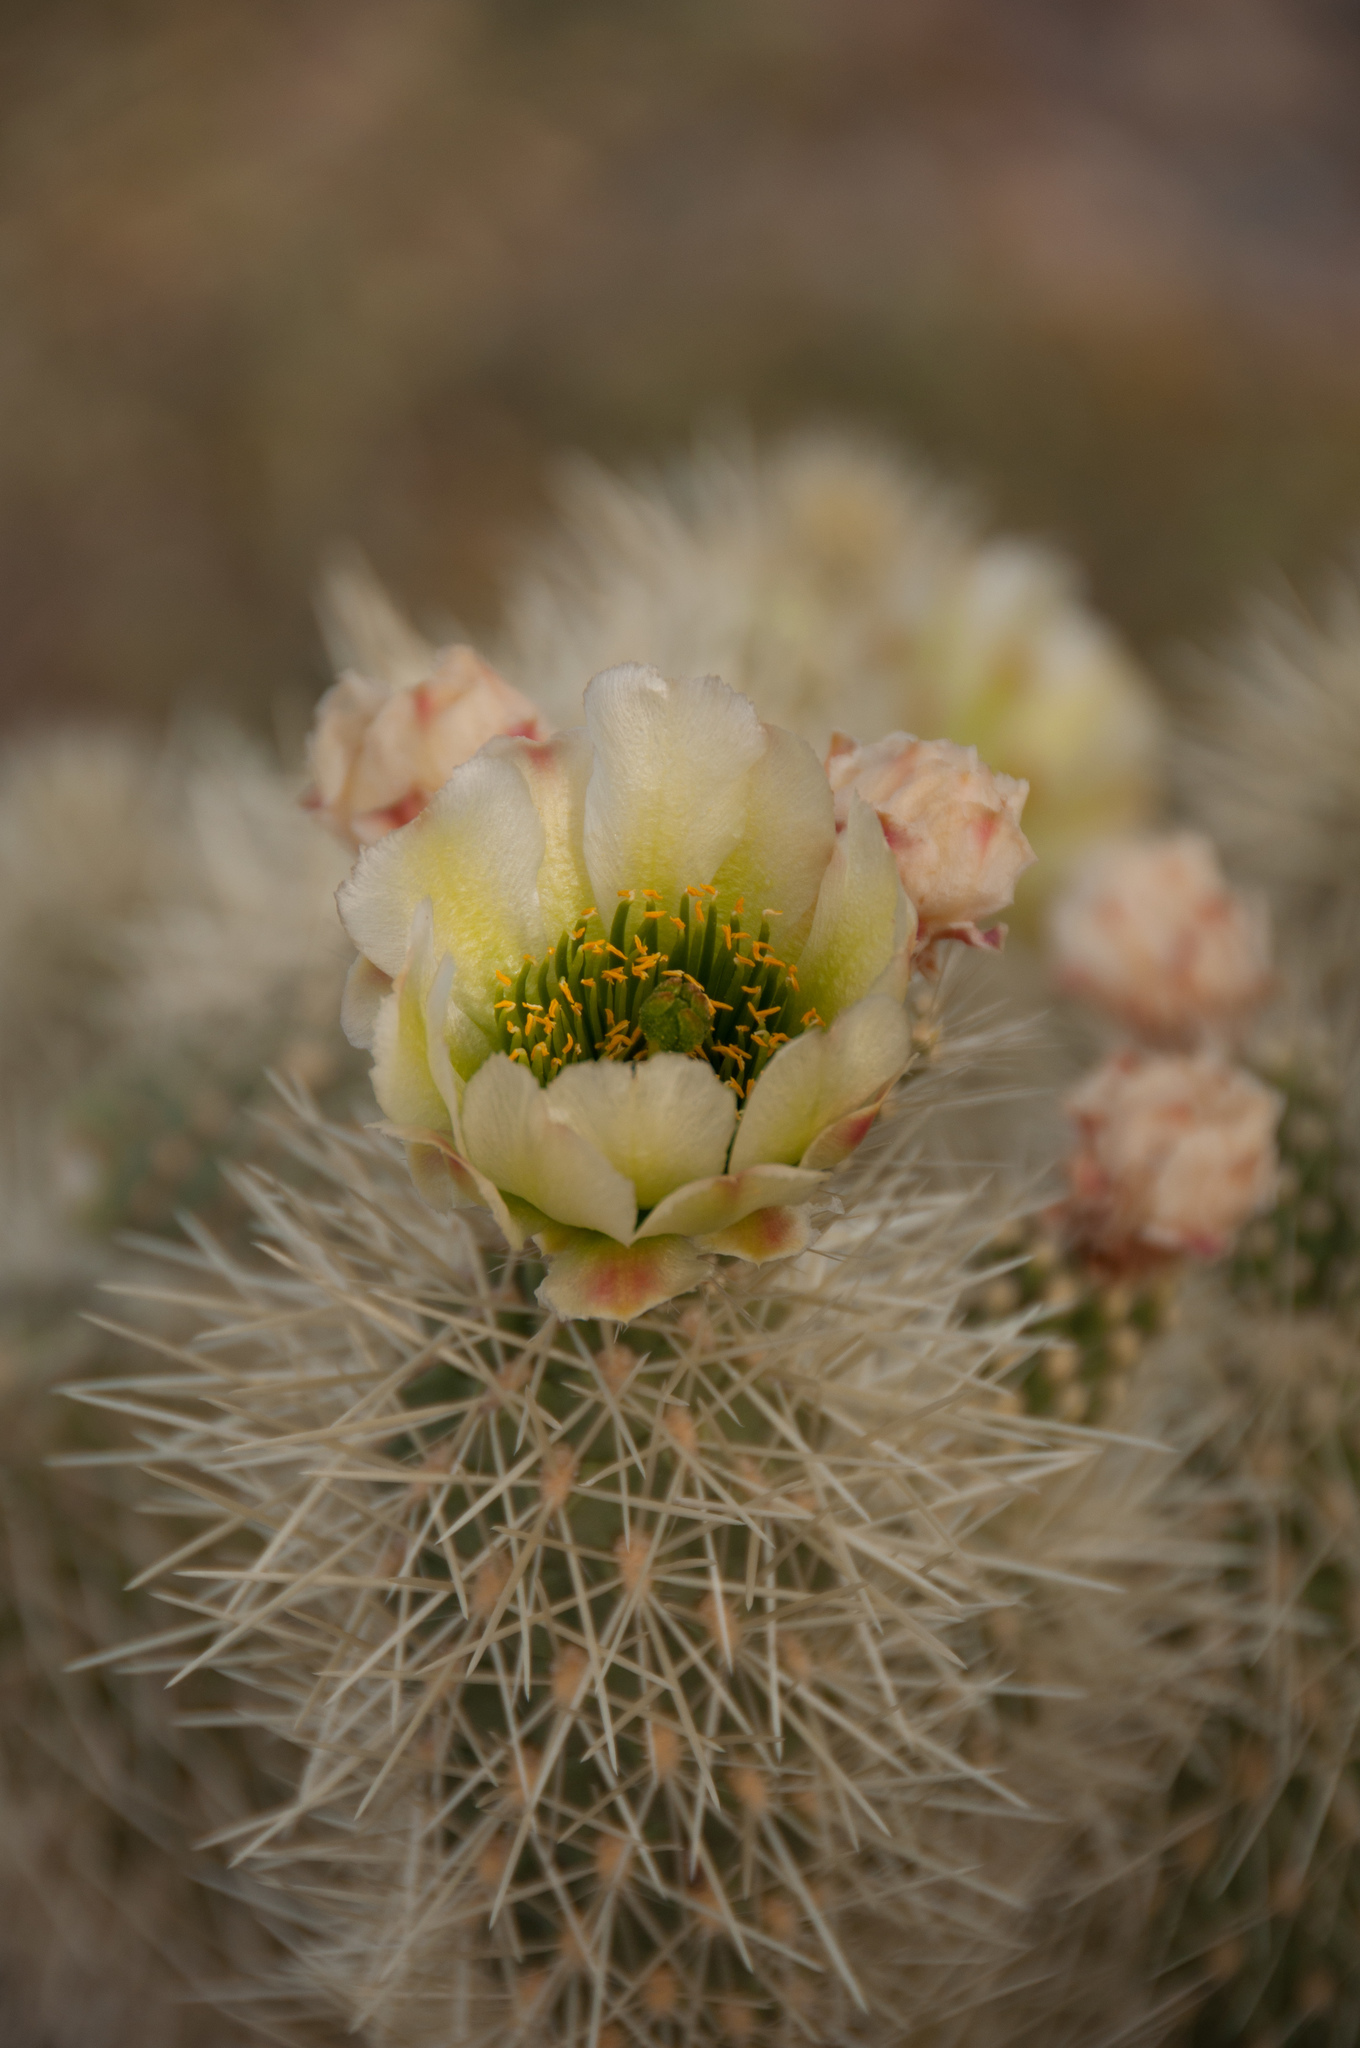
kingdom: Plantae
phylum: Tracheophyta
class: Magnoliopsida
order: Caryophyllales
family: Cactaceae
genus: Cylindropuntia
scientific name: Cylindropuntia fosbergii
